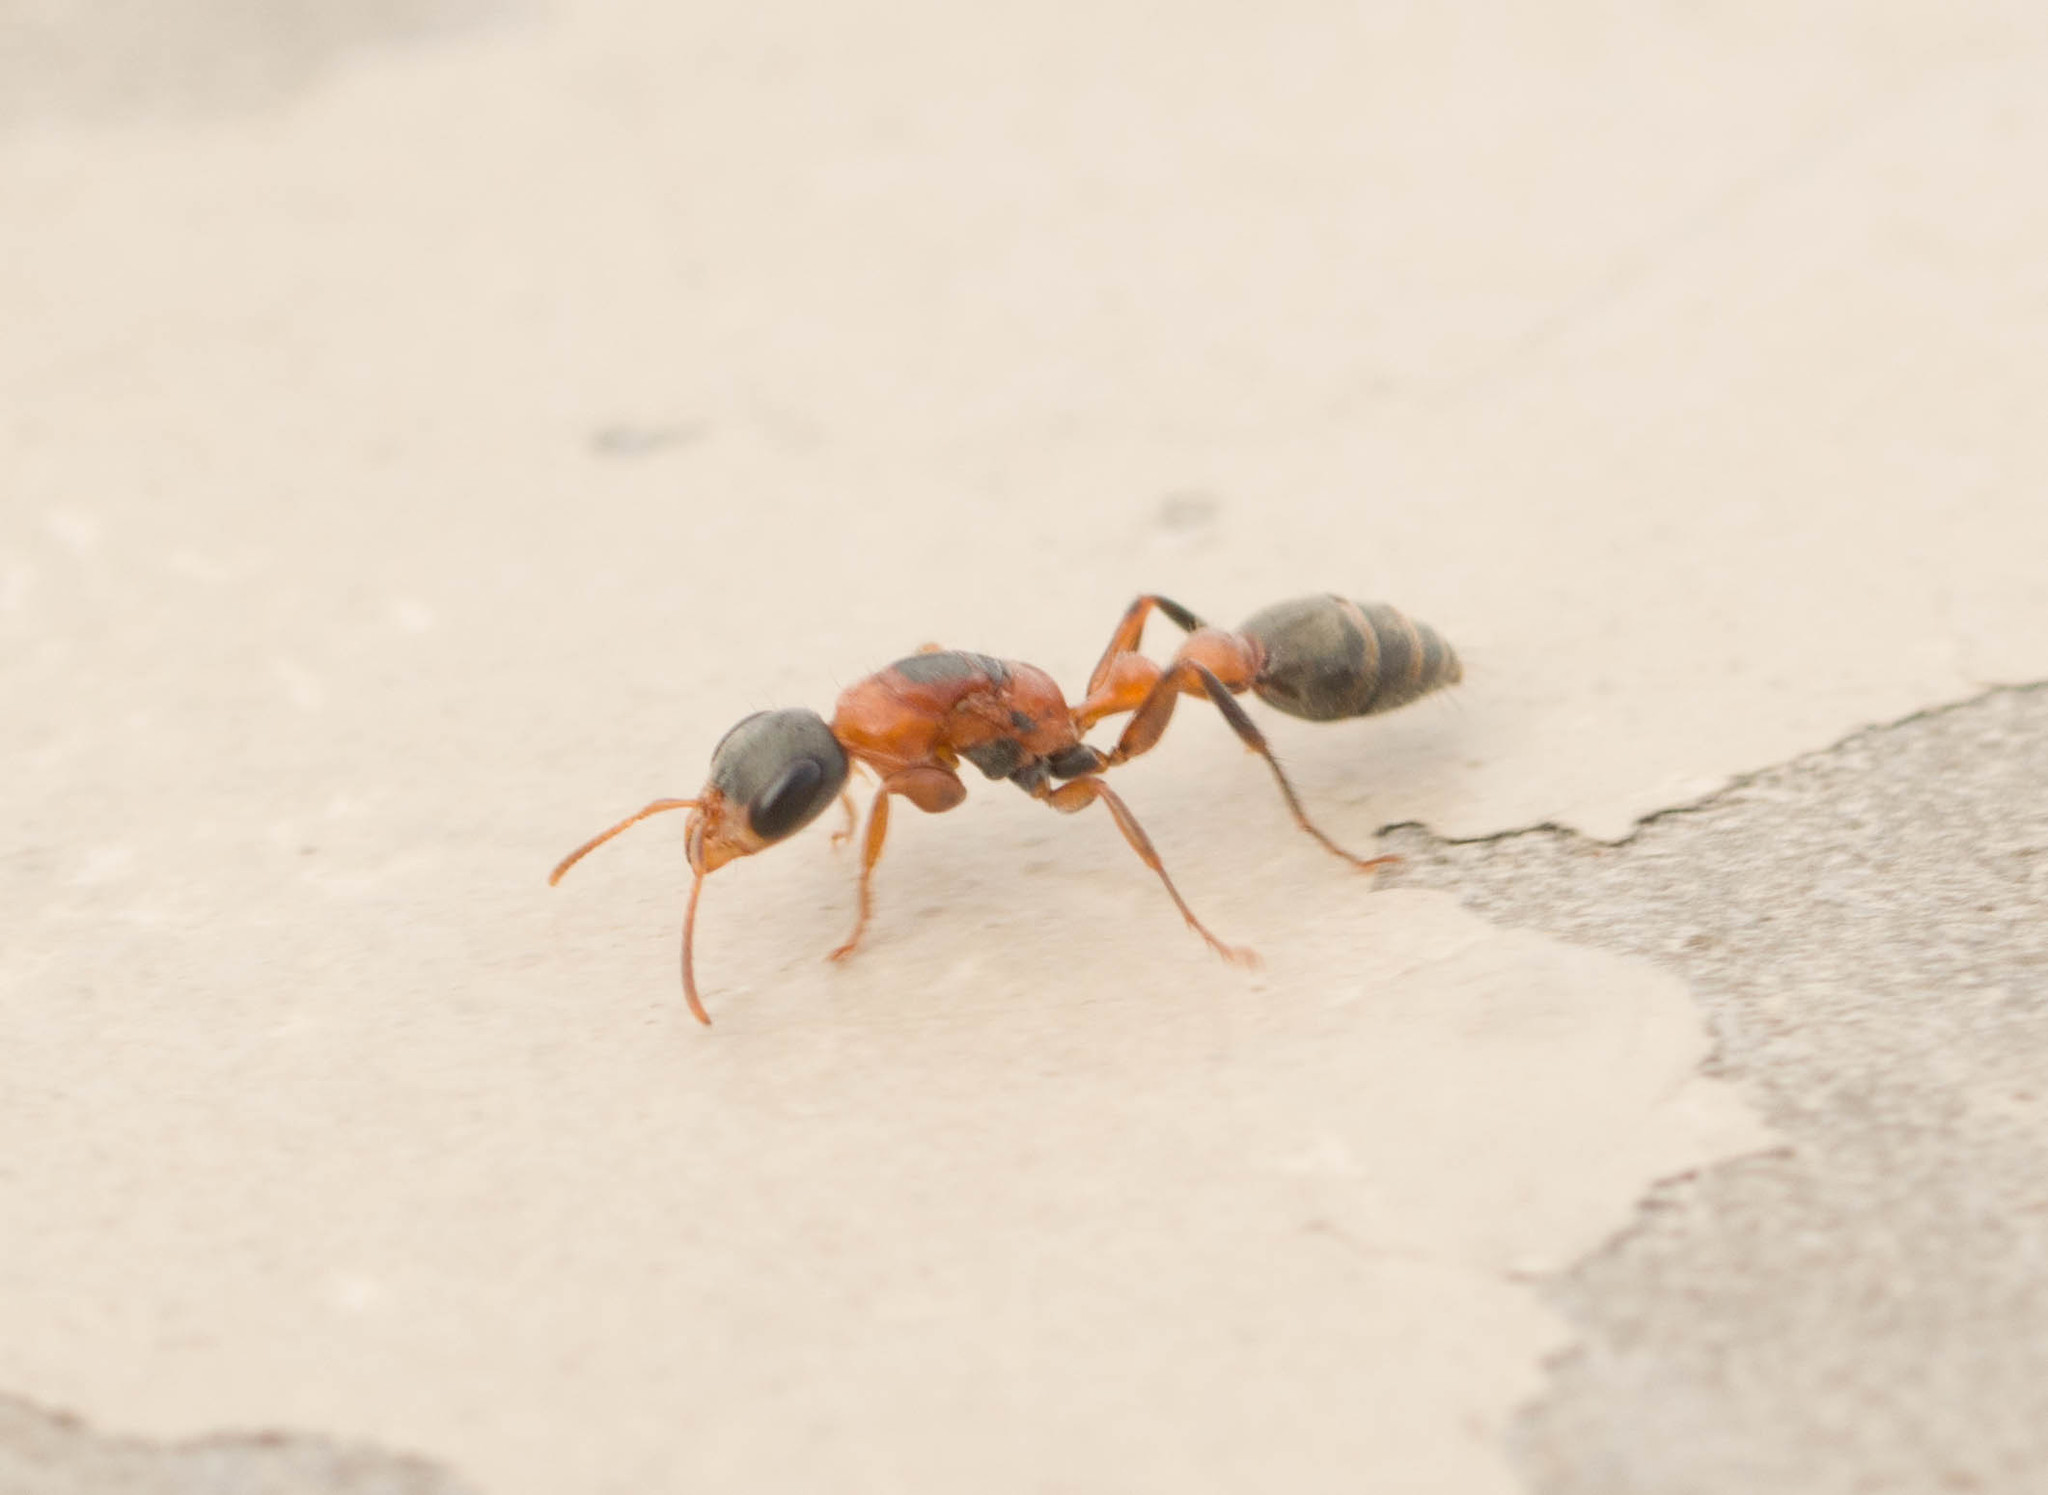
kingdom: Animalia
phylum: Arthropoda
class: Insecta
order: Hymenoptera
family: Formicidae
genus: Pseudomyrmex
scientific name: Pseudomyrmex gracilis
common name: Graceful twig ant
